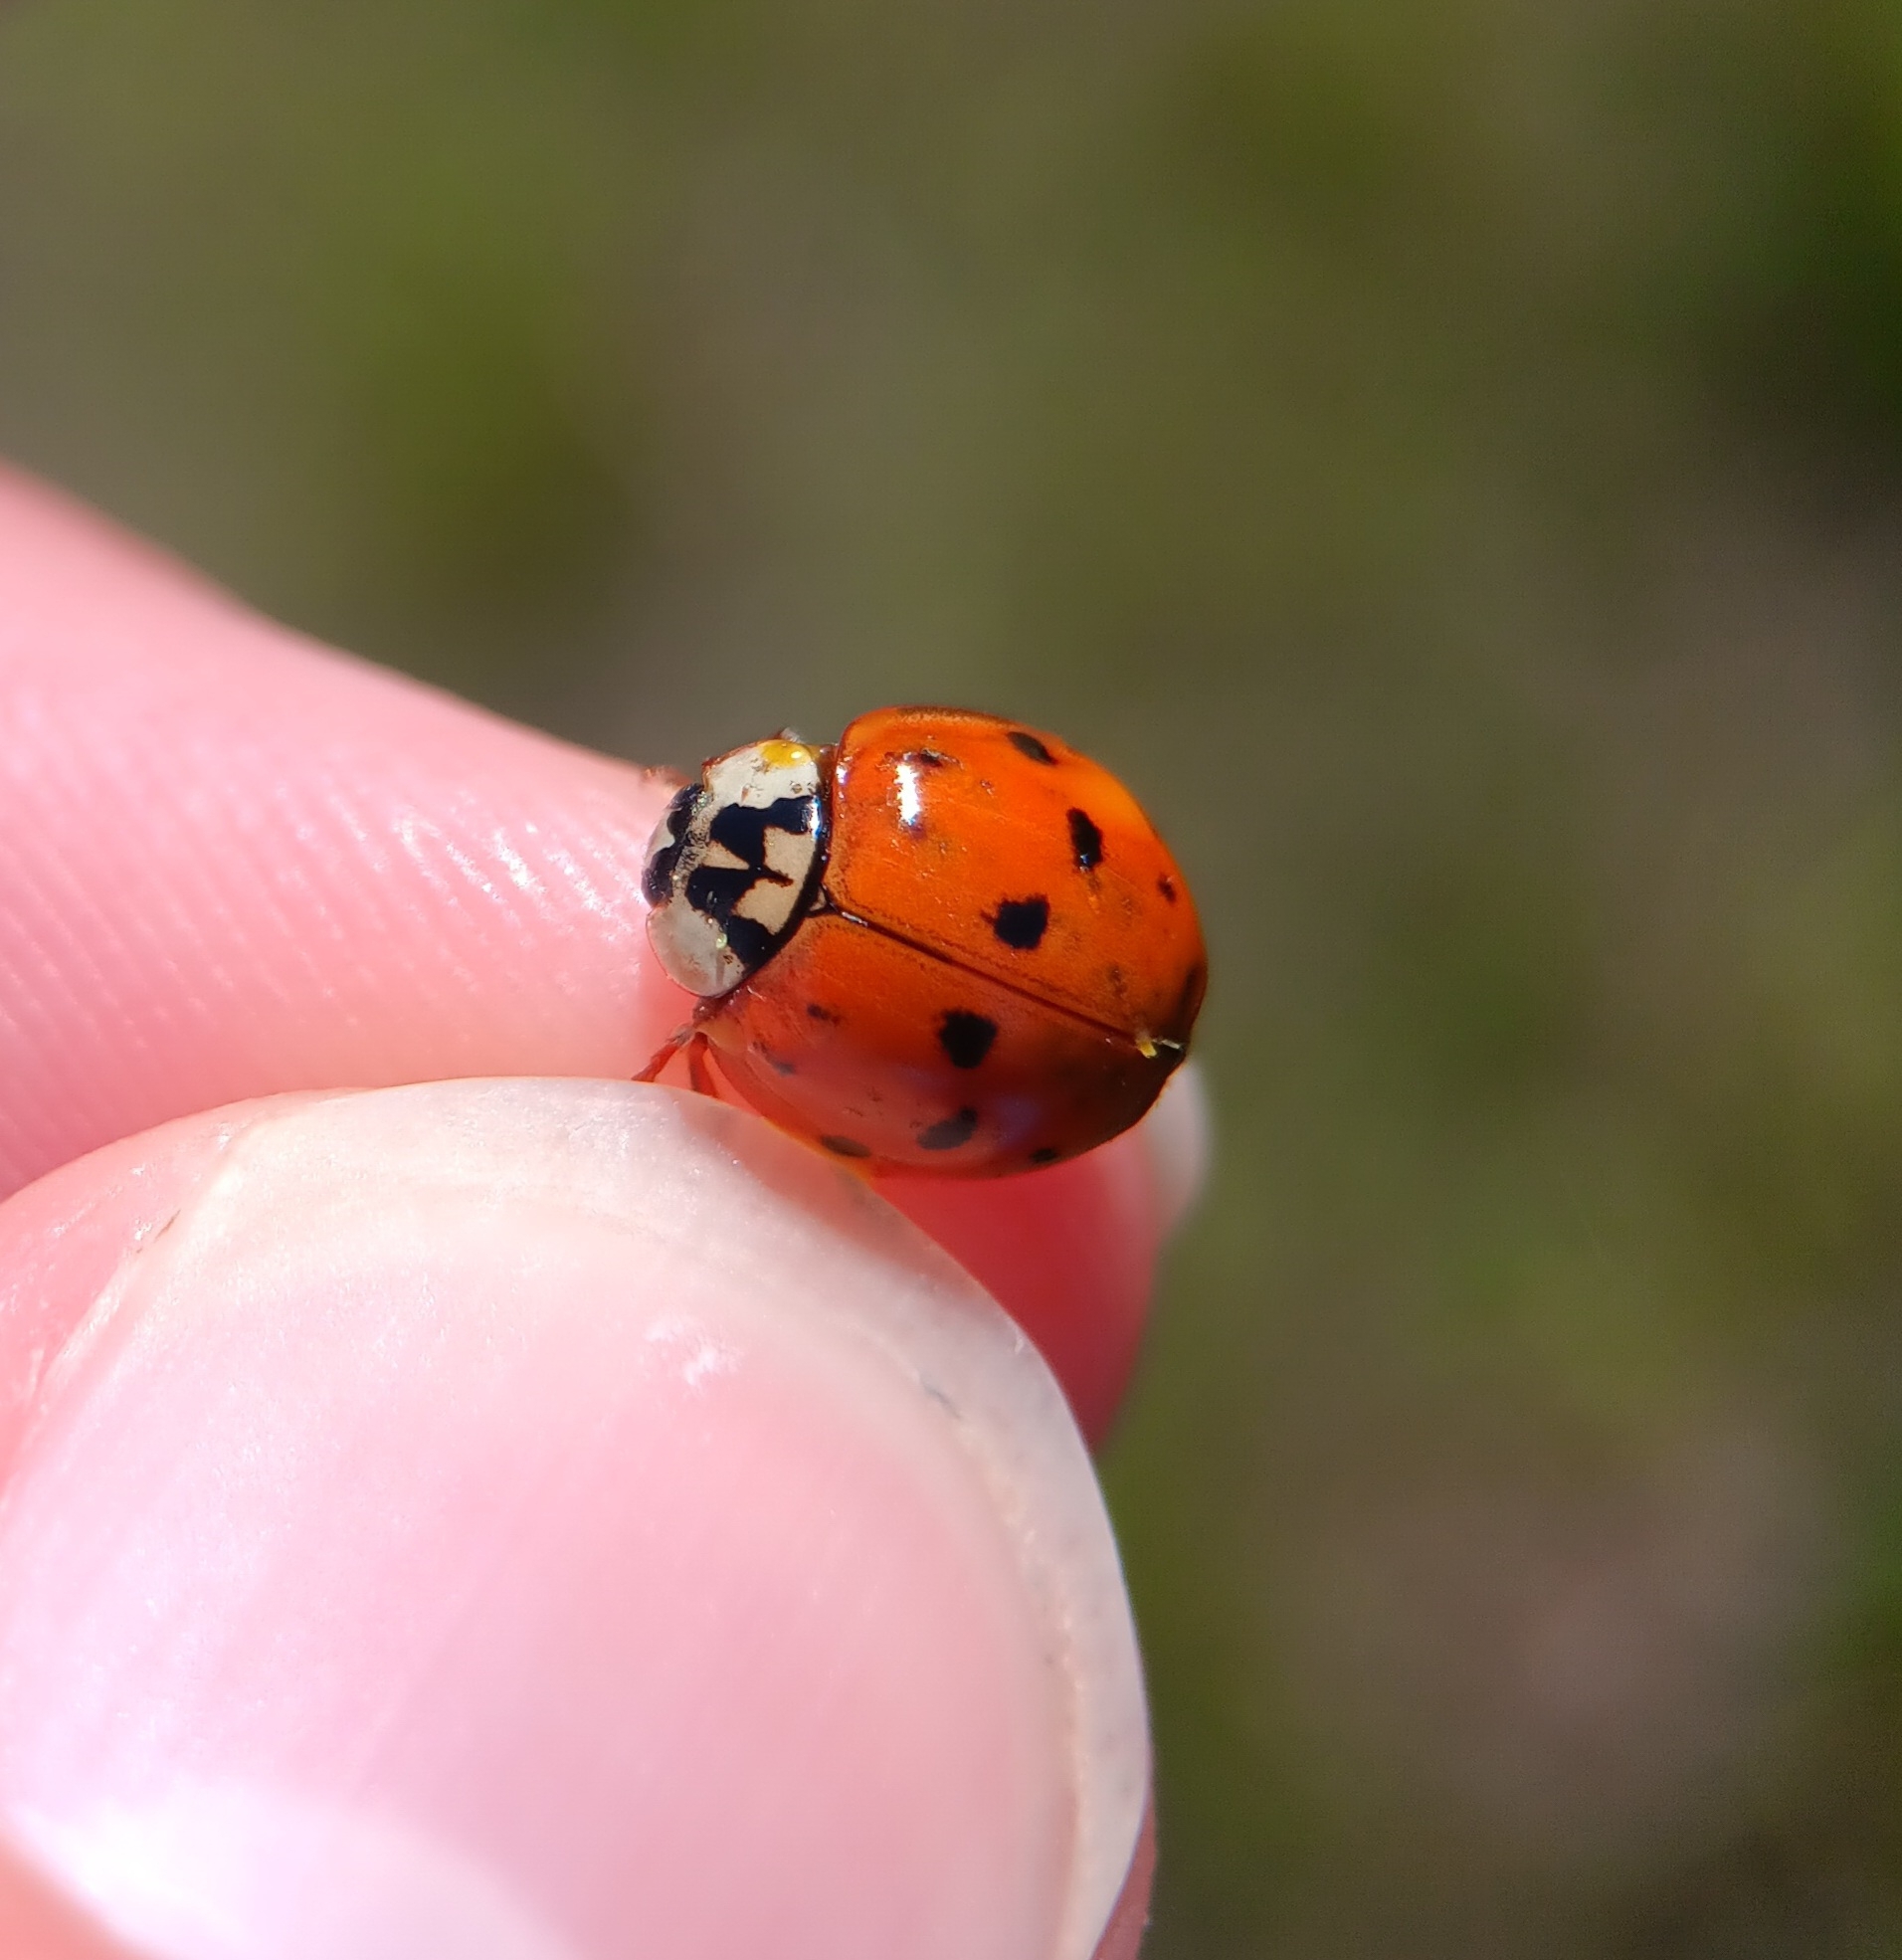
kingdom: Animalia
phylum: Arthropoda
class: Insecta
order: Coleoptera
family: Coccinellidae
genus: Harmonia
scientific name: Harmonia axyridis
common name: Harlequin ladybird
